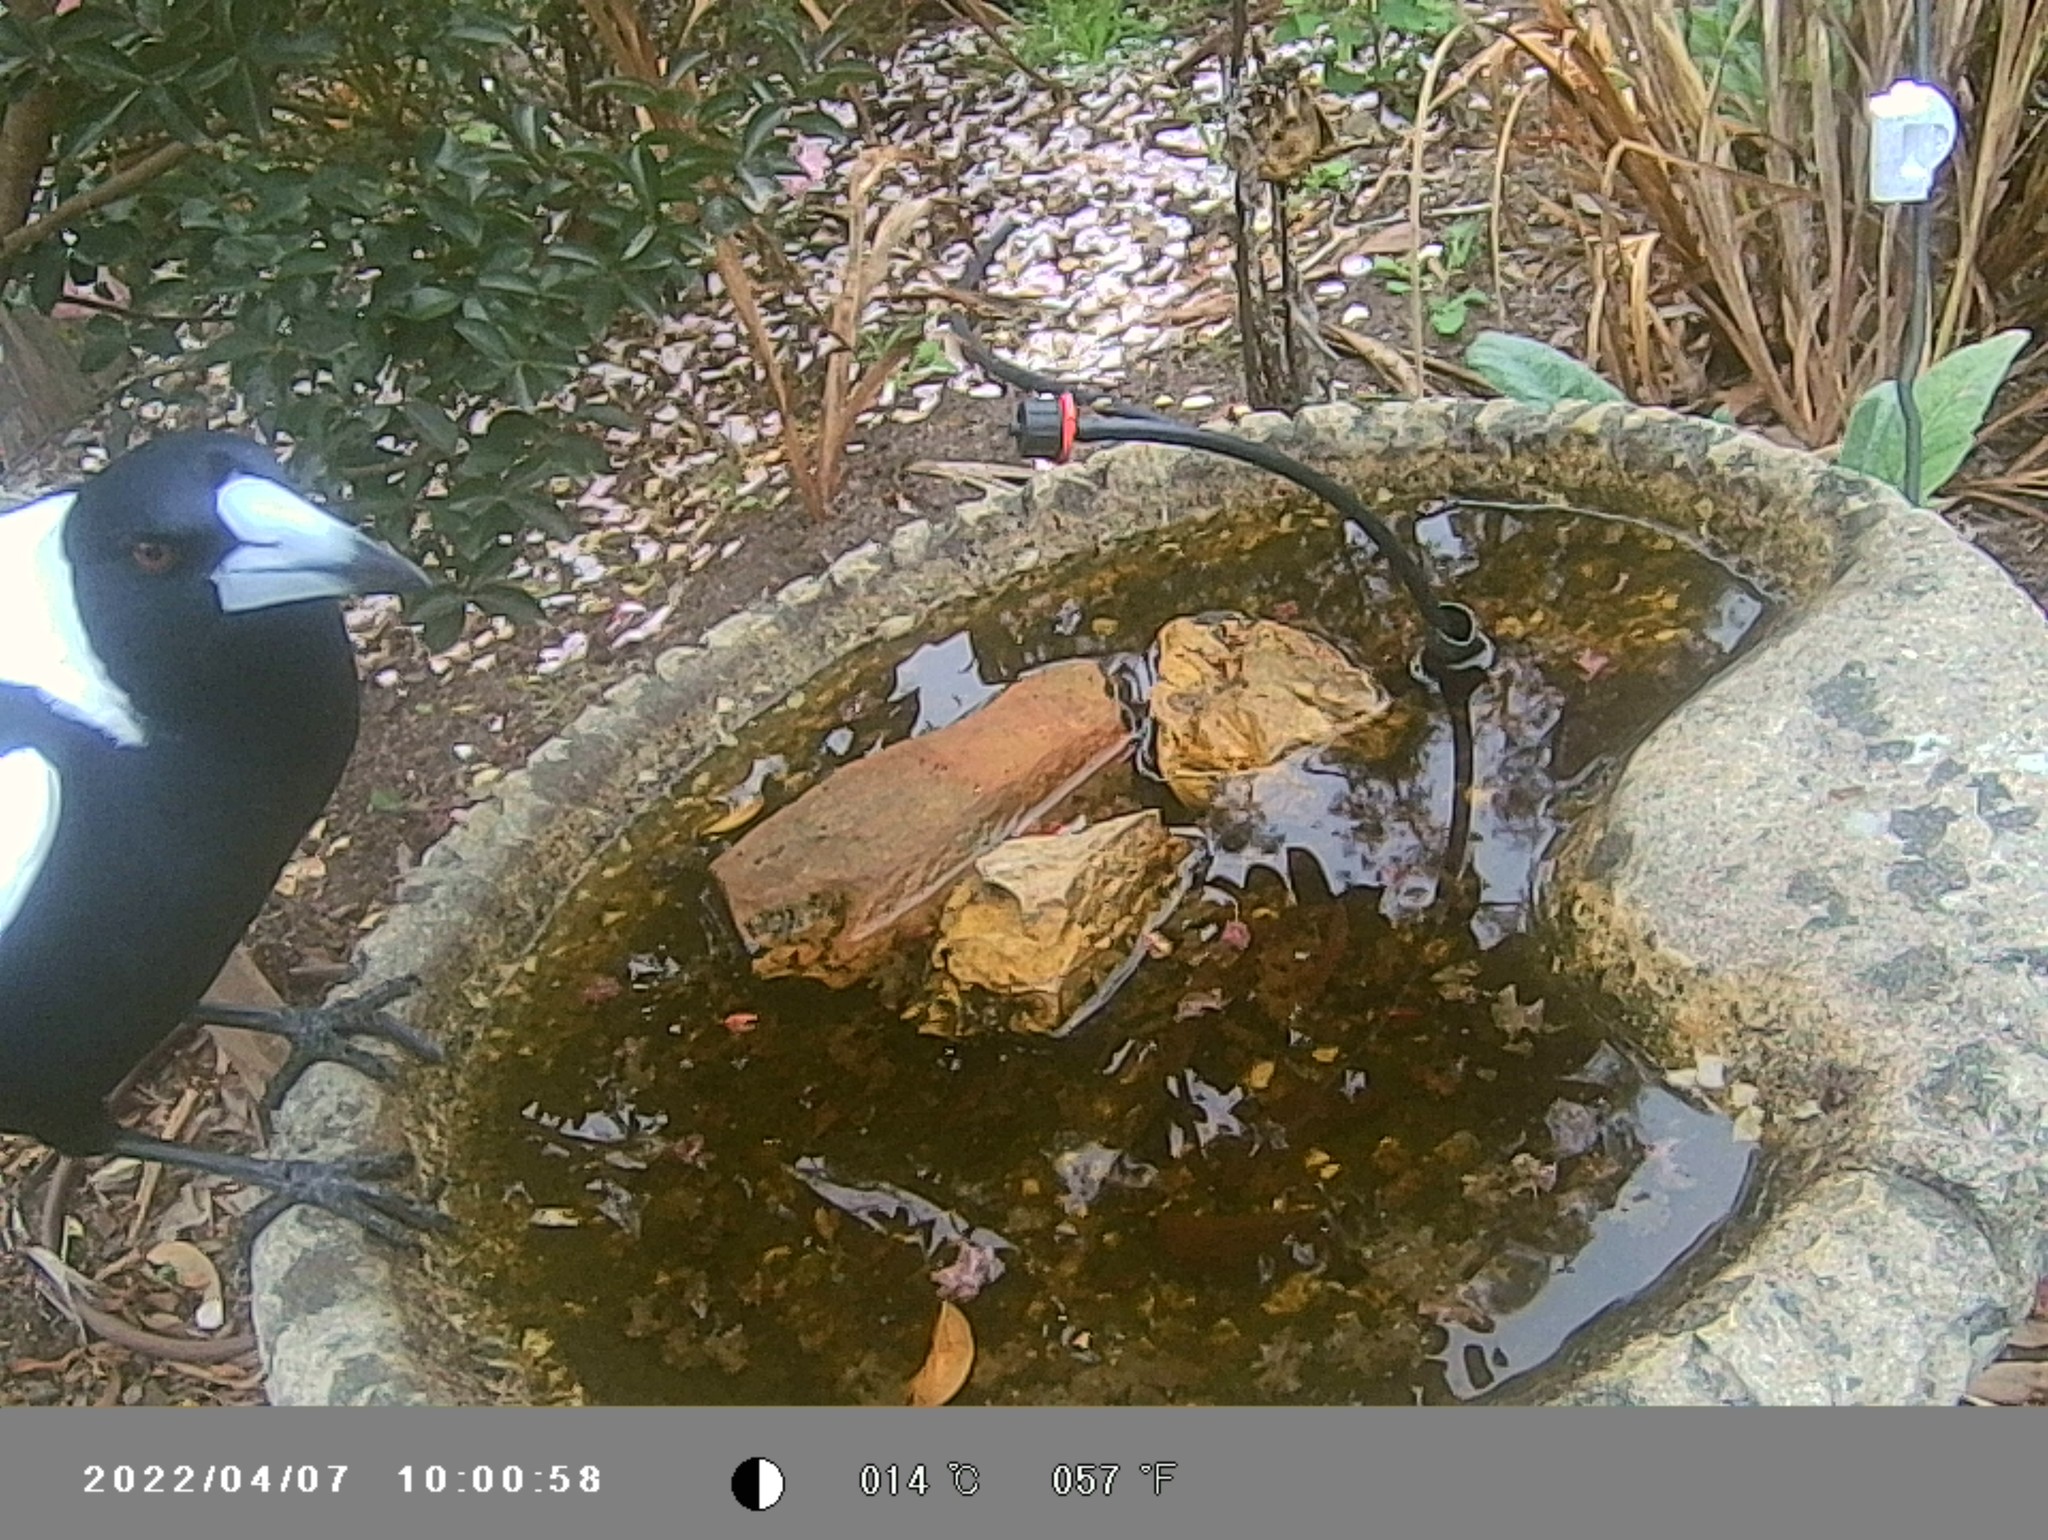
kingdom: Animalia
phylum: Chordata
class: Aves
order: Passeriformes
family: Cracticidae
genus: Gymnorhina
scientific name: Gymnorhina tibicen
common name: Australian magpie
